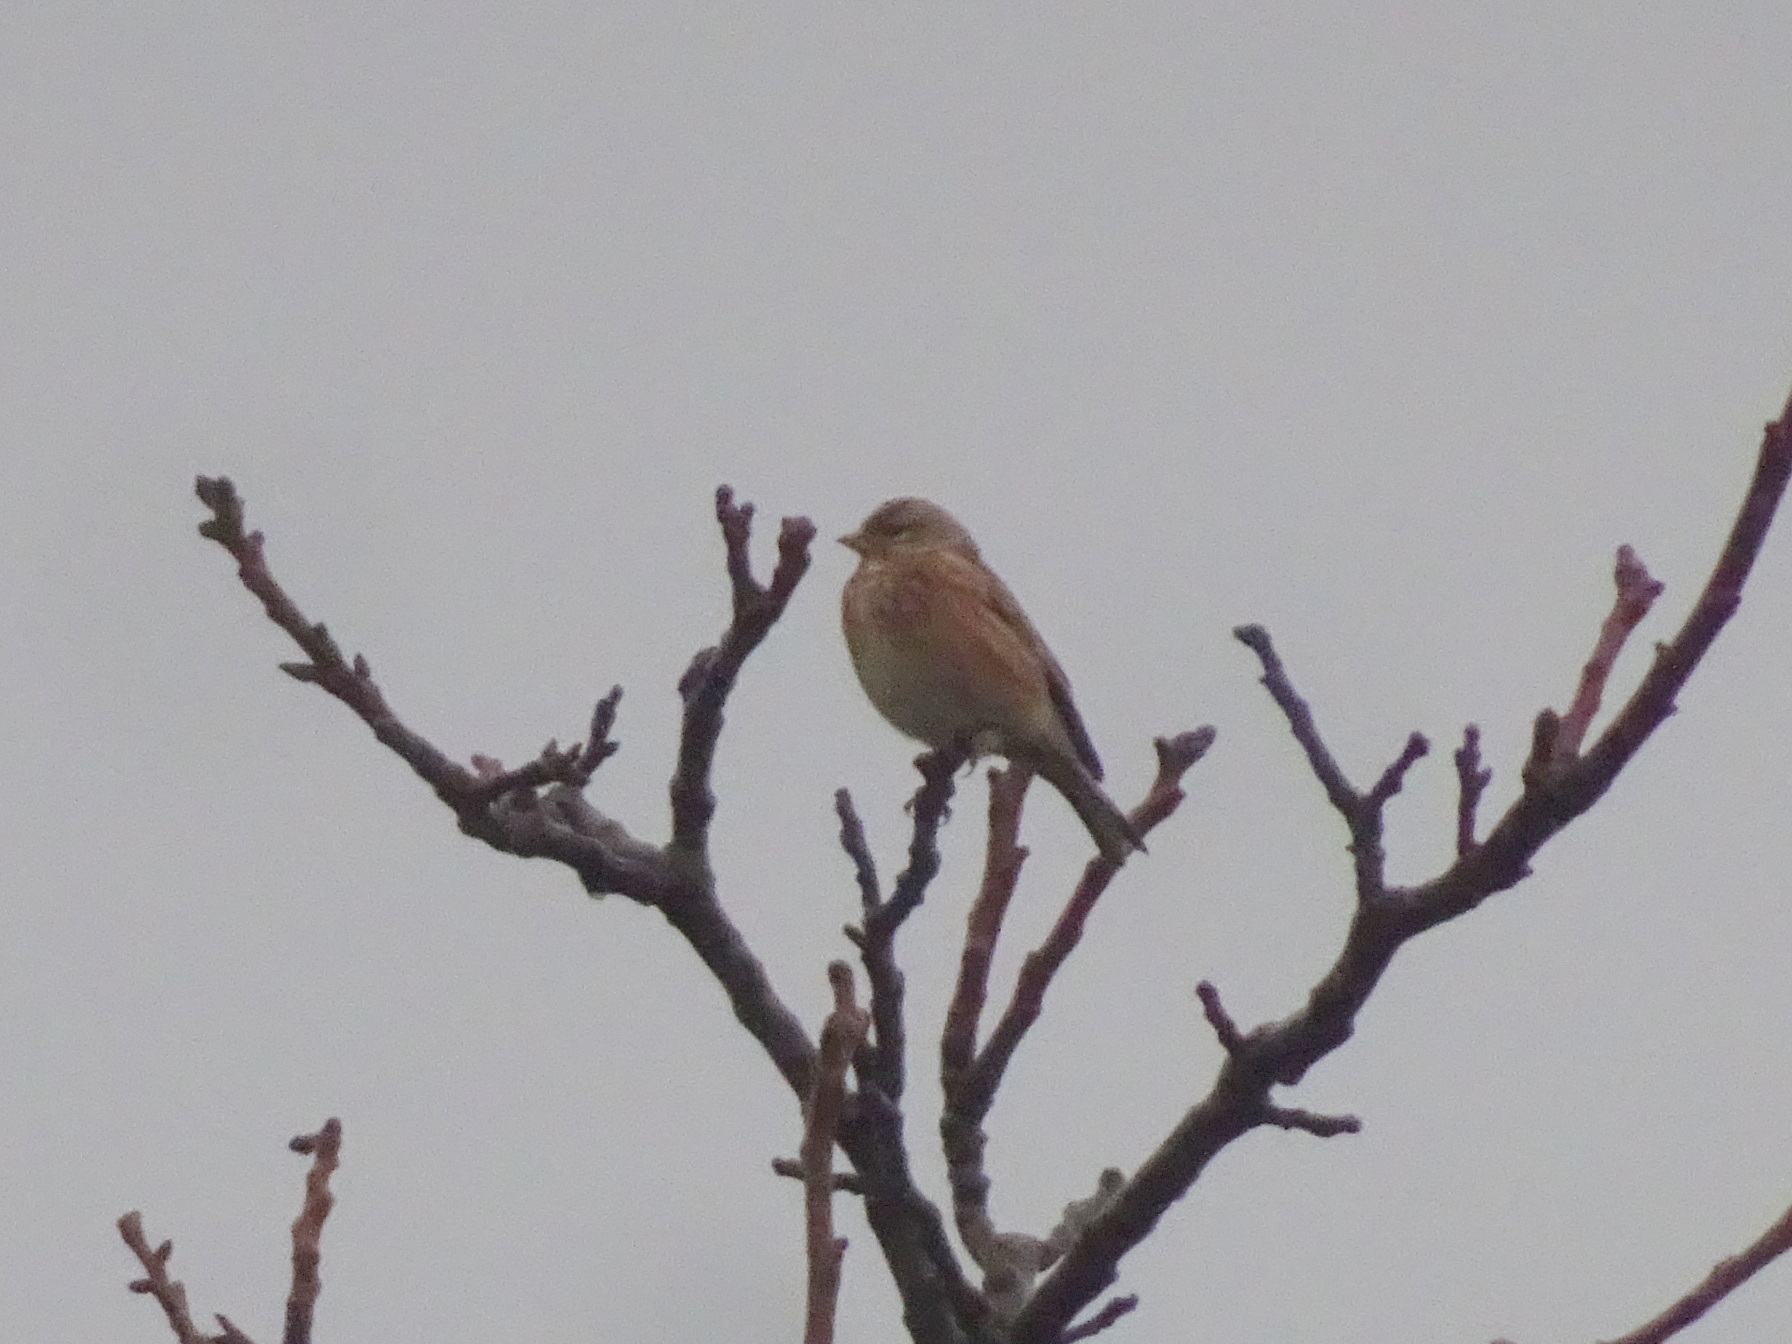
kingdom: Animalia
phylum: Chordata
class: Aves
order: Passeriformes
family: Fringillidae
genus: Linaria
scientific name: Linaria cannabina
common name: Common linnet
